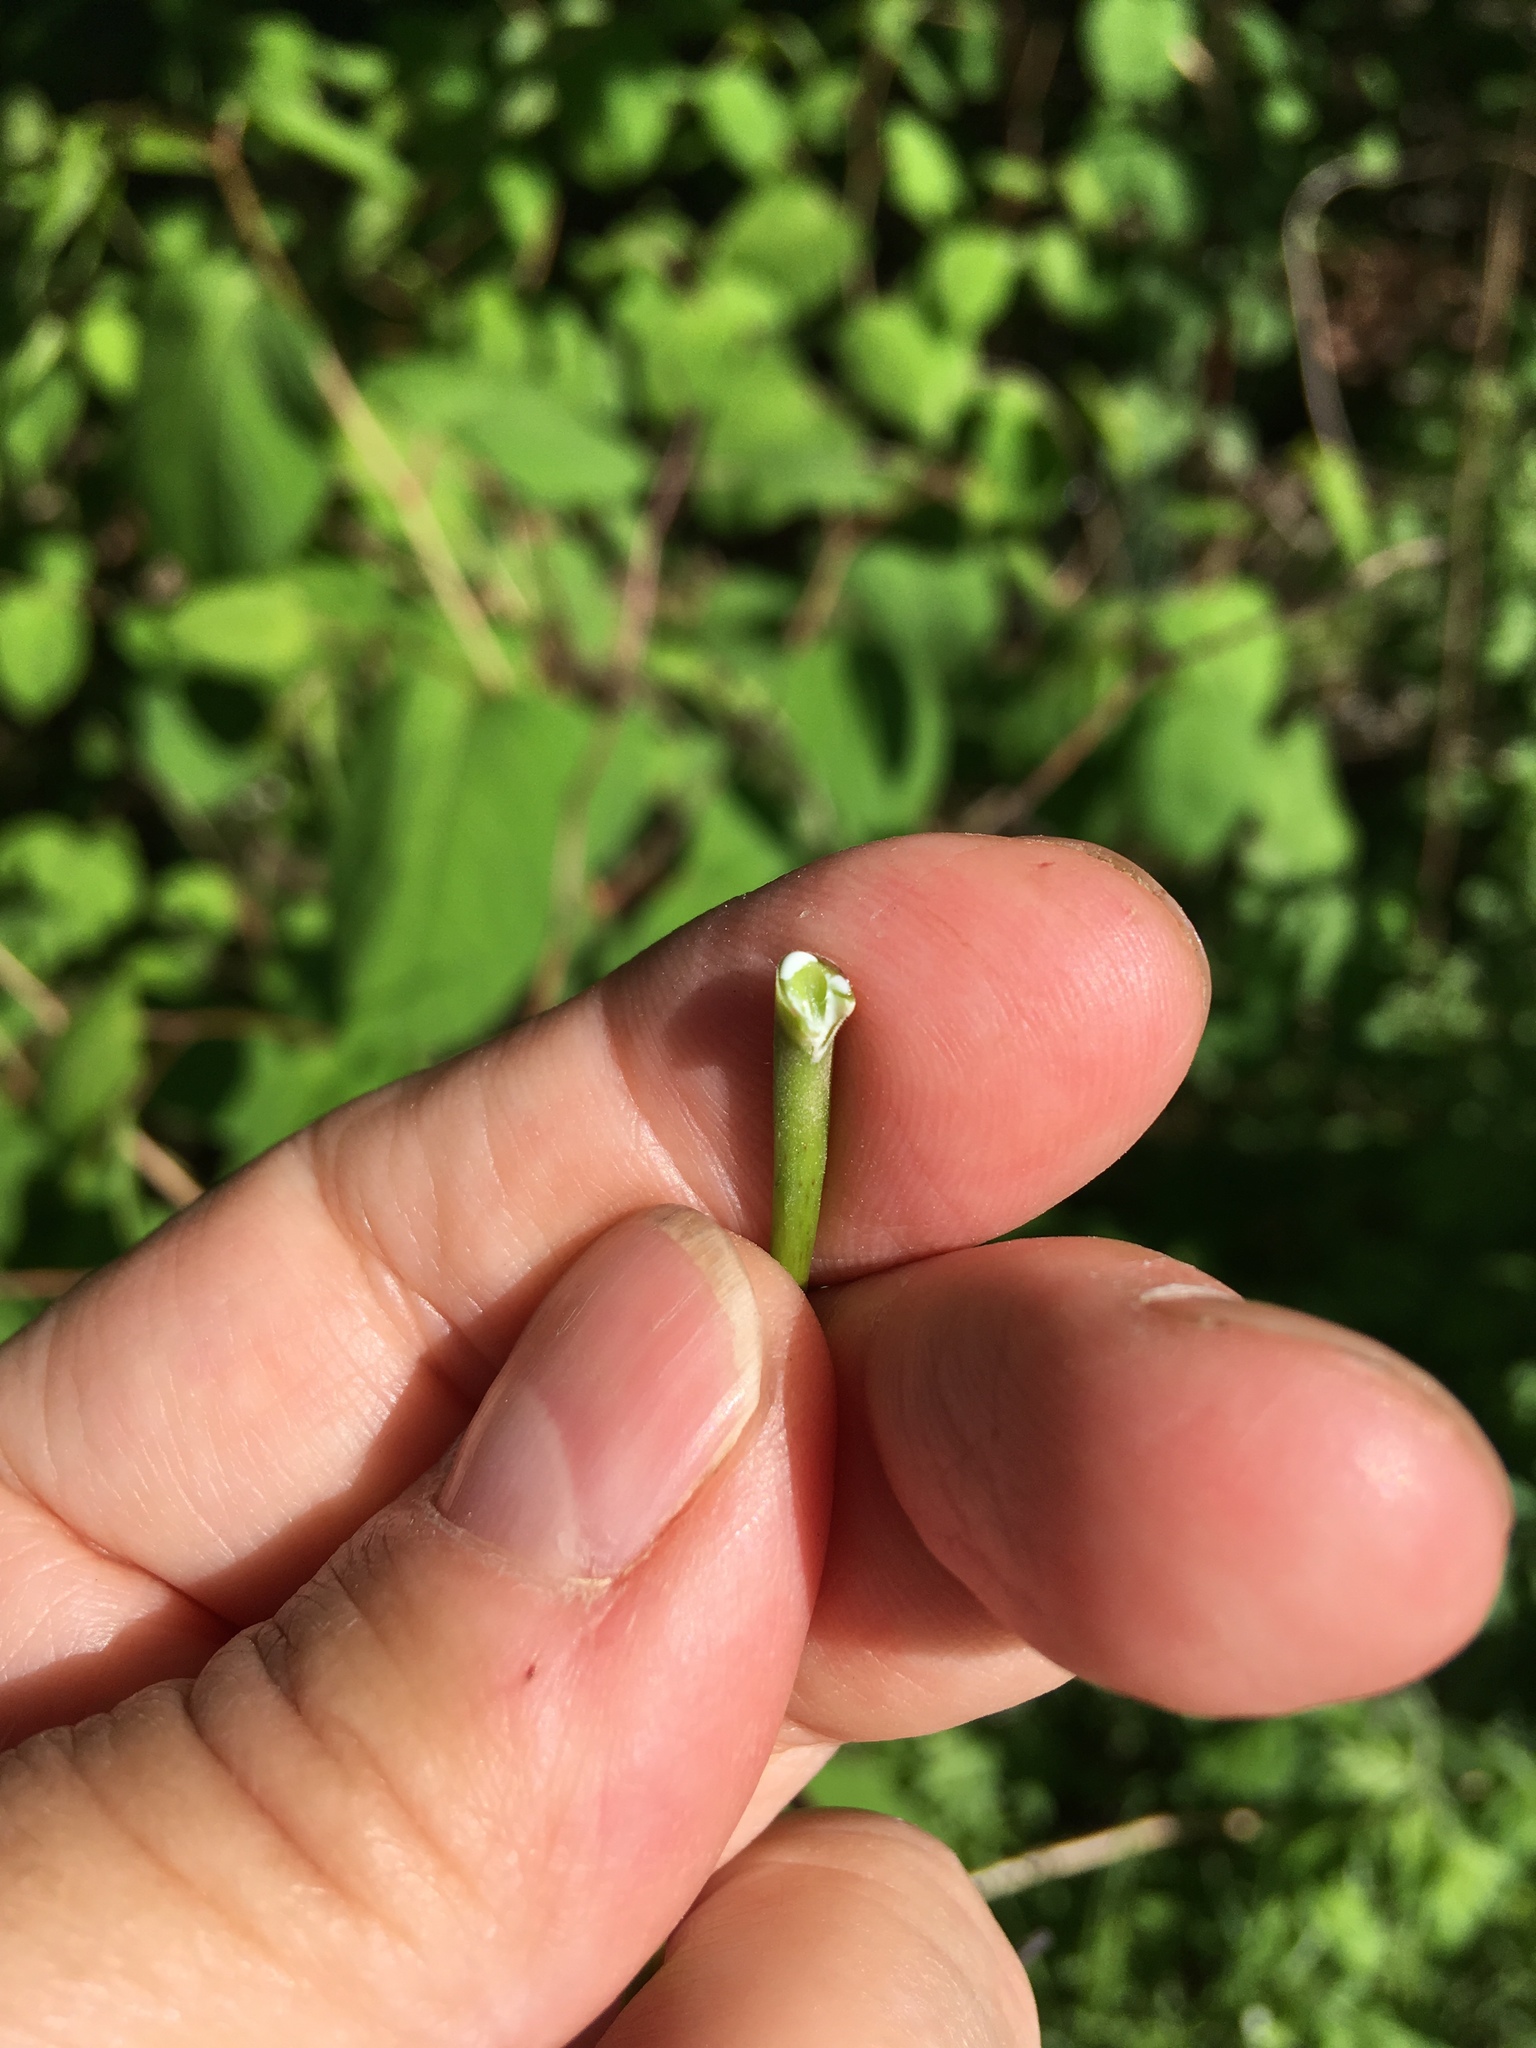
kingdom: Plantae
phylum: Tracheophyta
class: Magnoliopsida
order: Sapindales
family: Sapindaceae
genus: Acer
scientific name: Acer platanoides
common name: Norway maple
